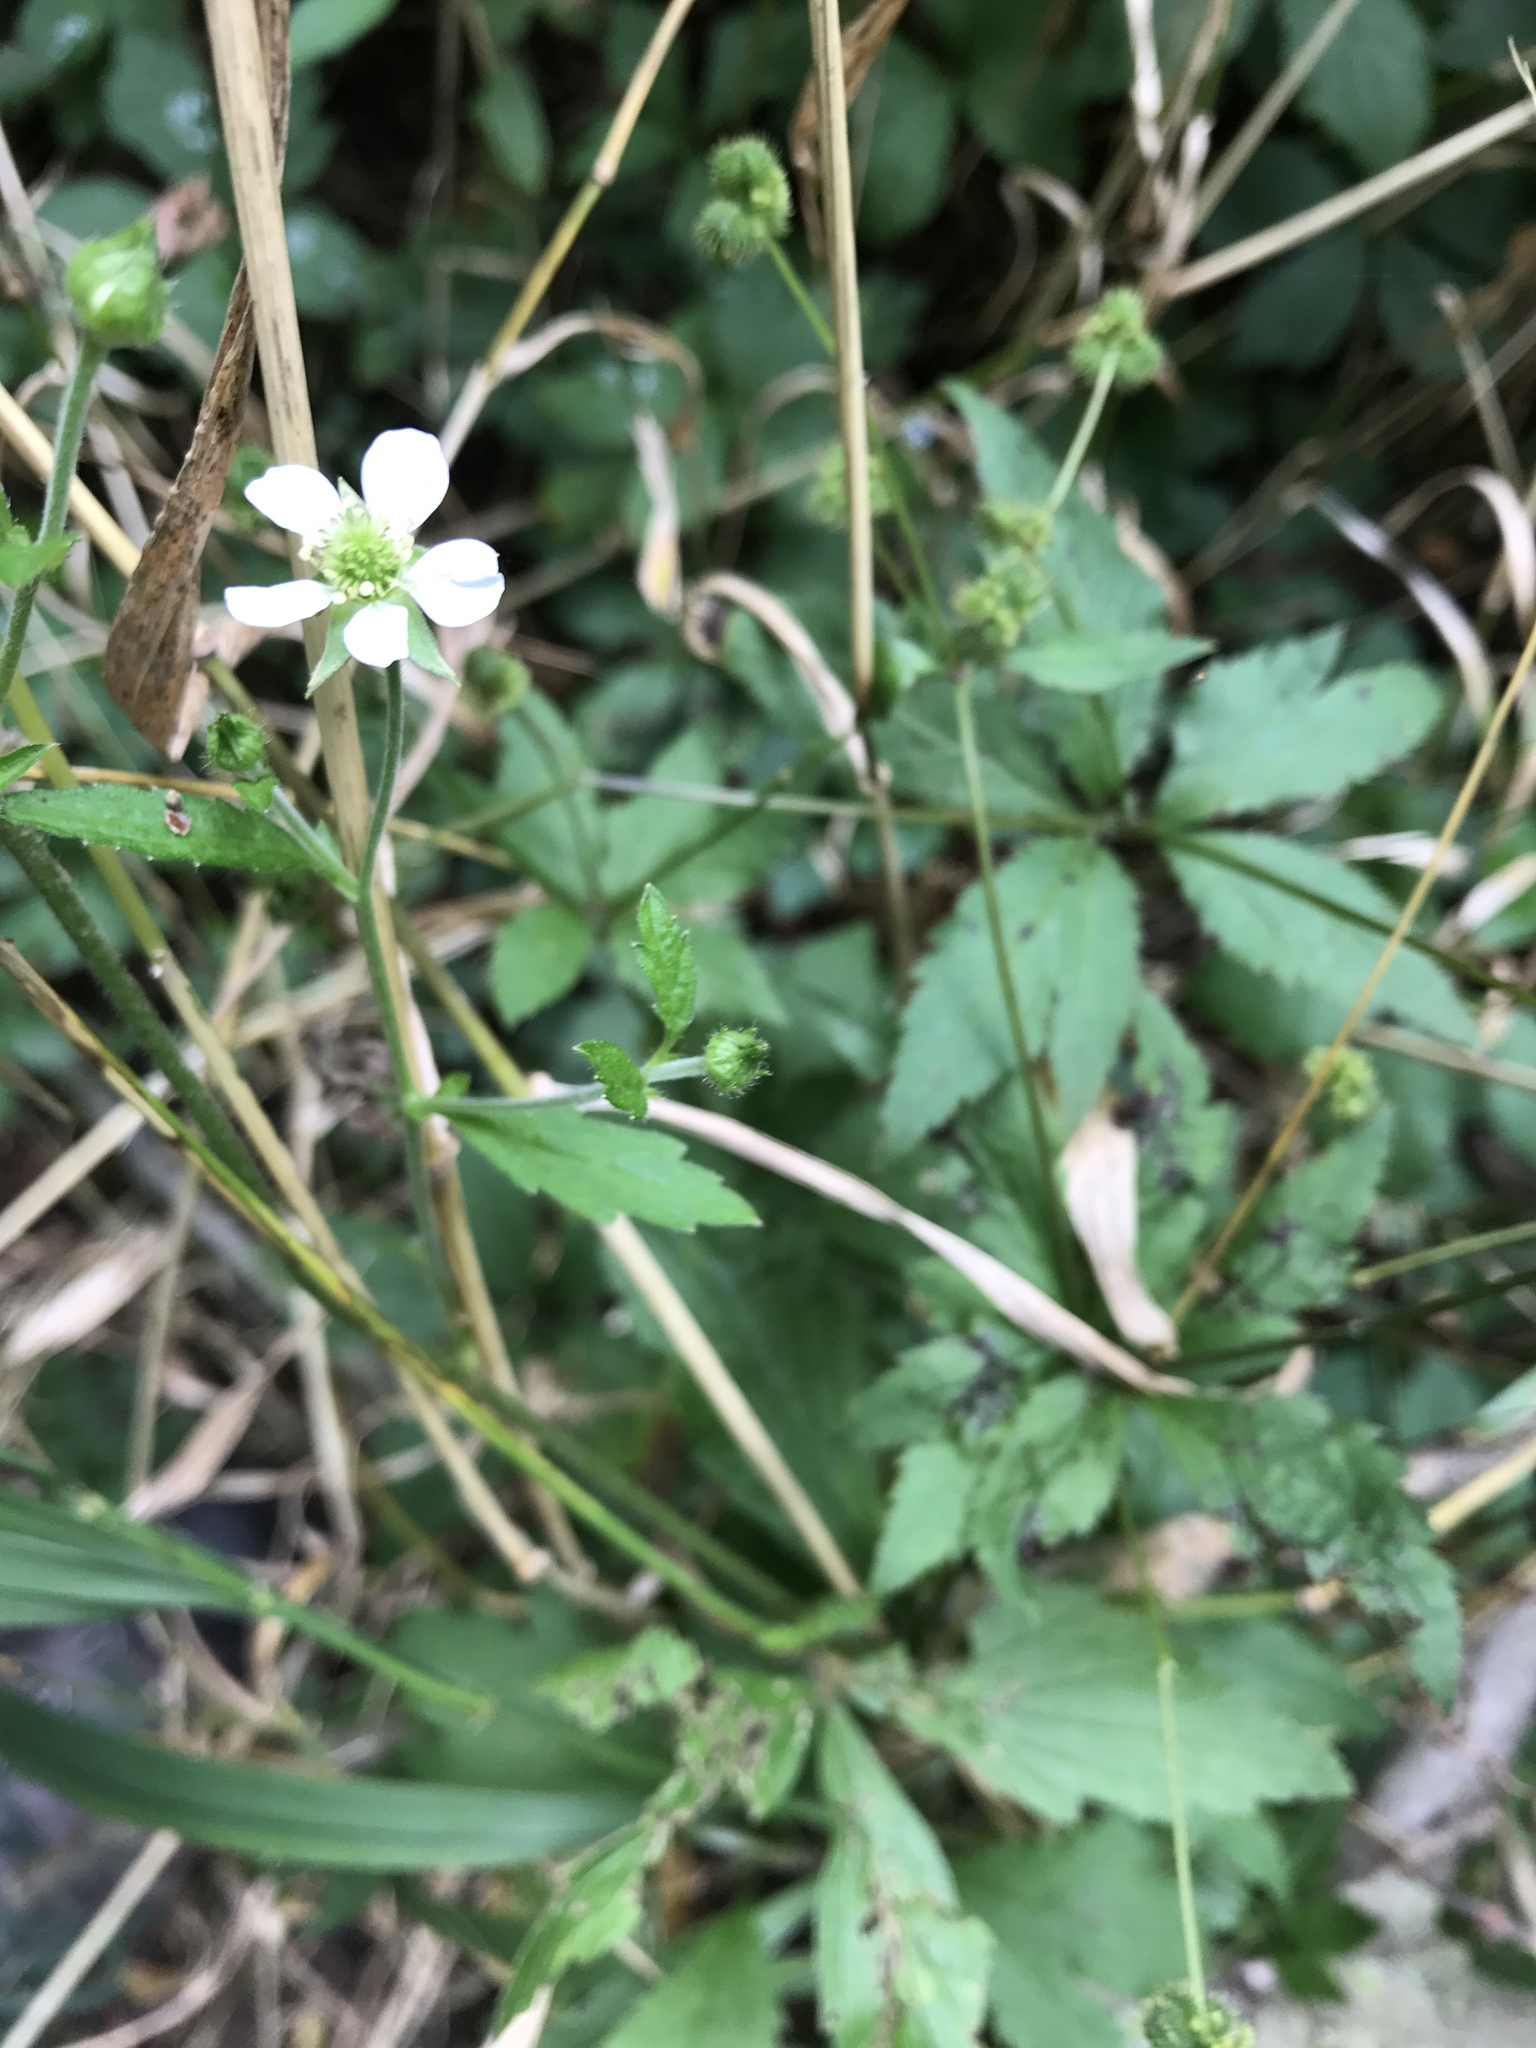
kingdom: Plantae
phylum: Tracheophyta
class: Magnoliopsida
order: Rosales
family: Rosaceae
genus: Geum
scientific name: Geum canadense
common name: White avens
